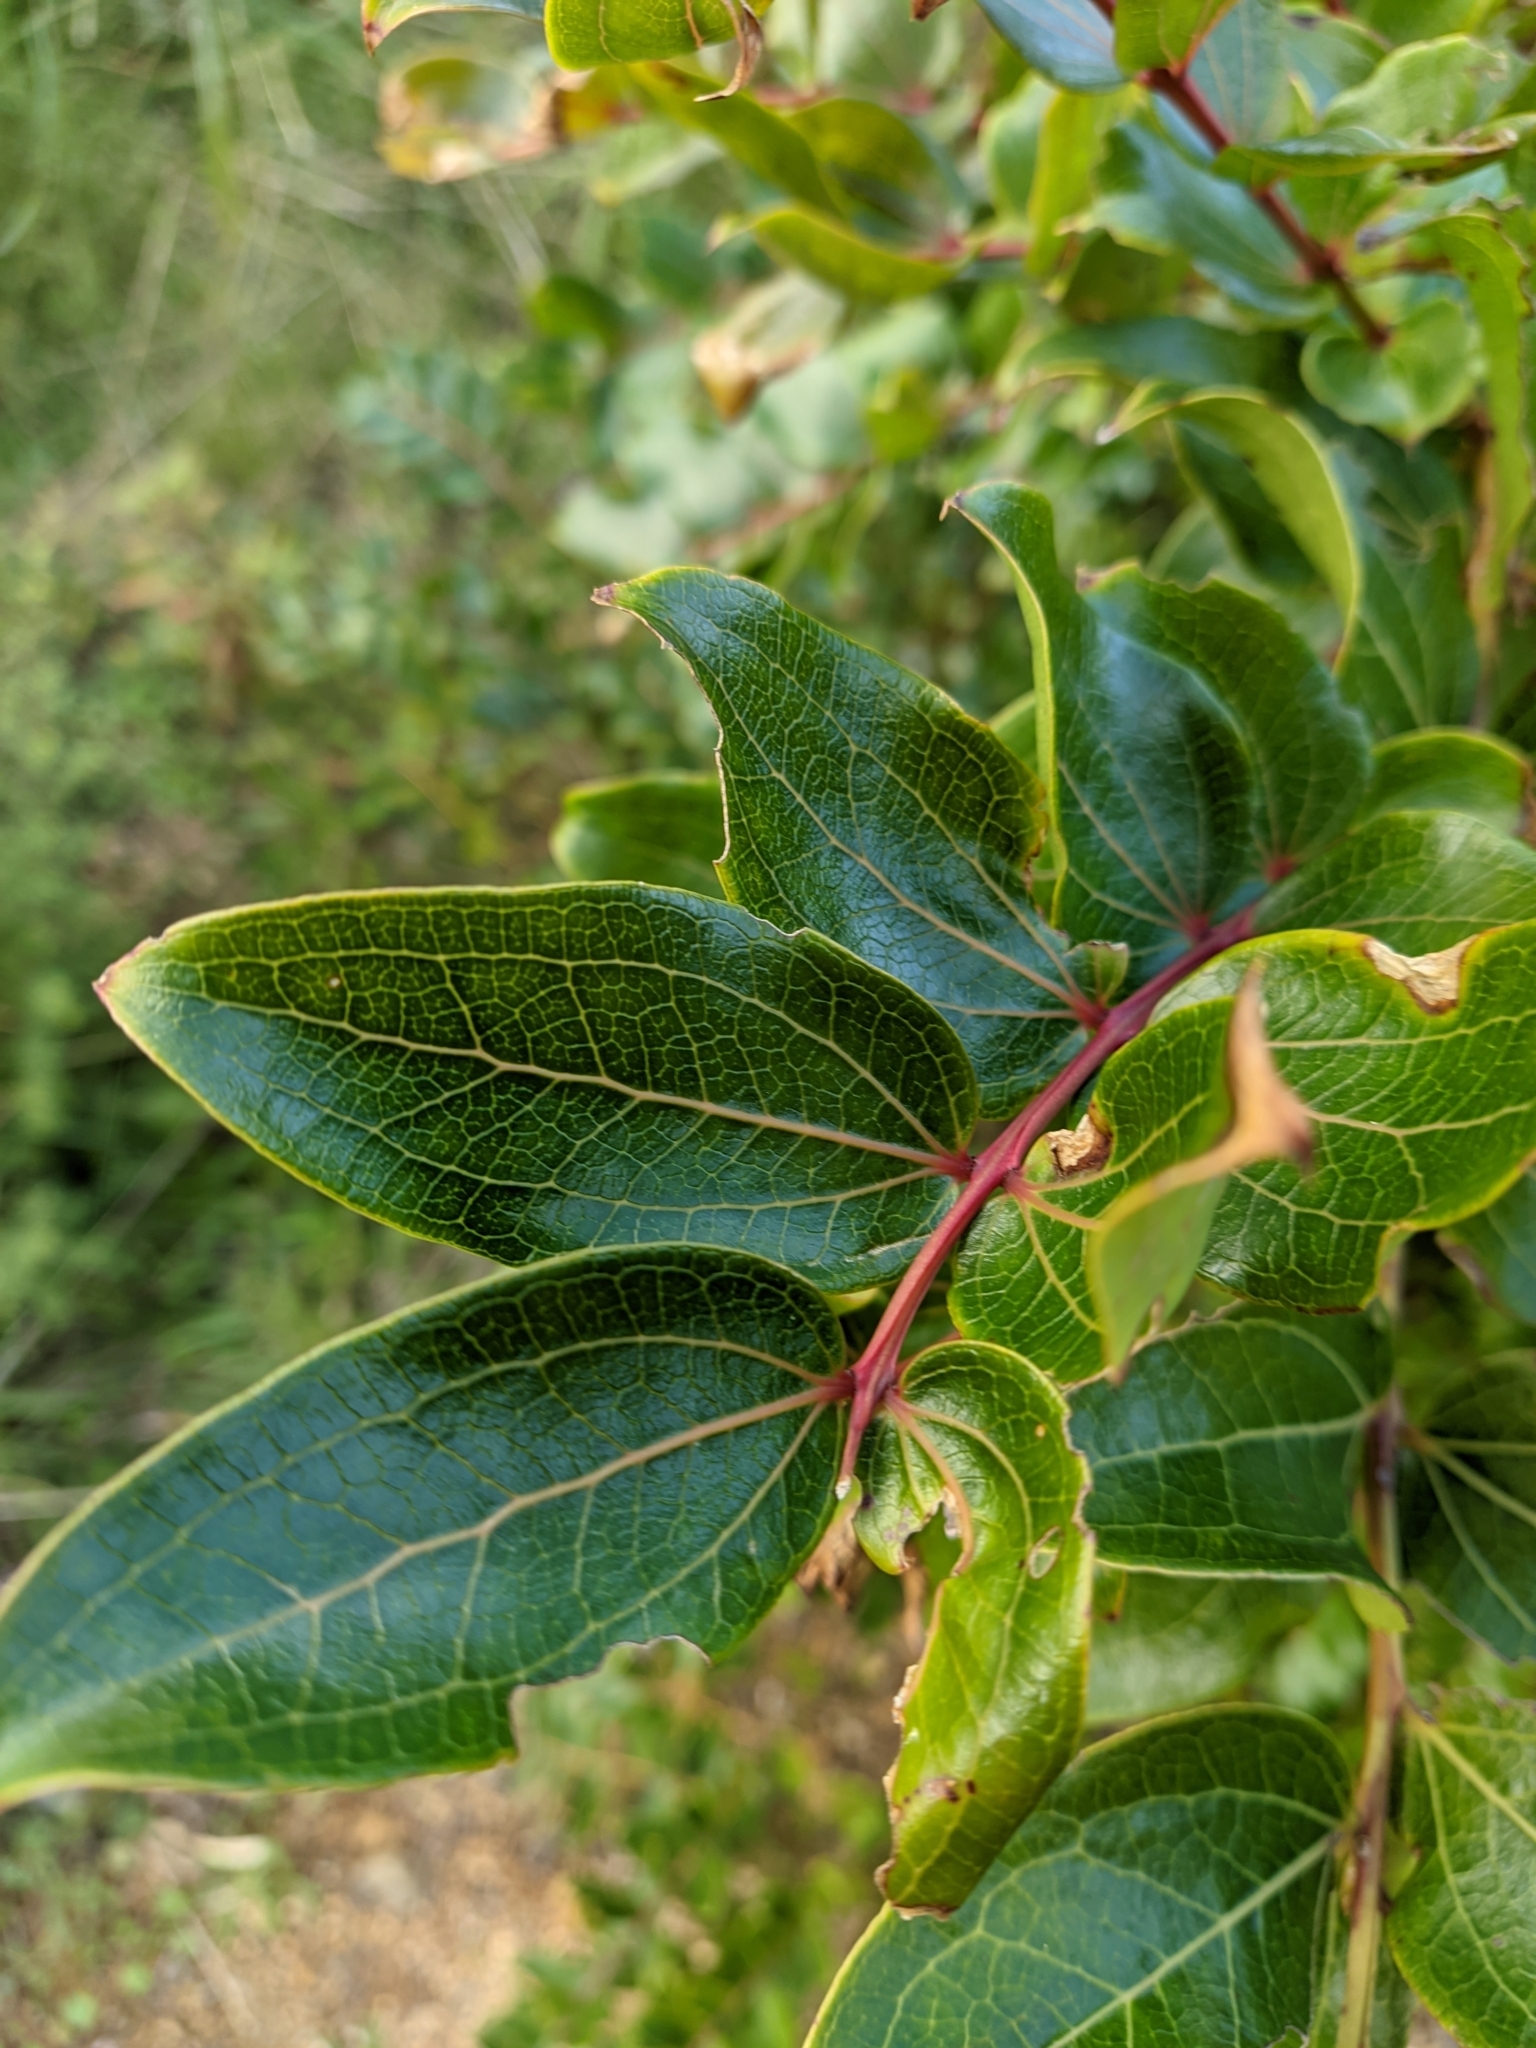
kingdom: Plantae
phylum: Tracheophyta
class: Magnoliopsida
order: Cucurbitales
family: Coriariaceae
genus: Coriaria
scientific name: Coriaria arborea
